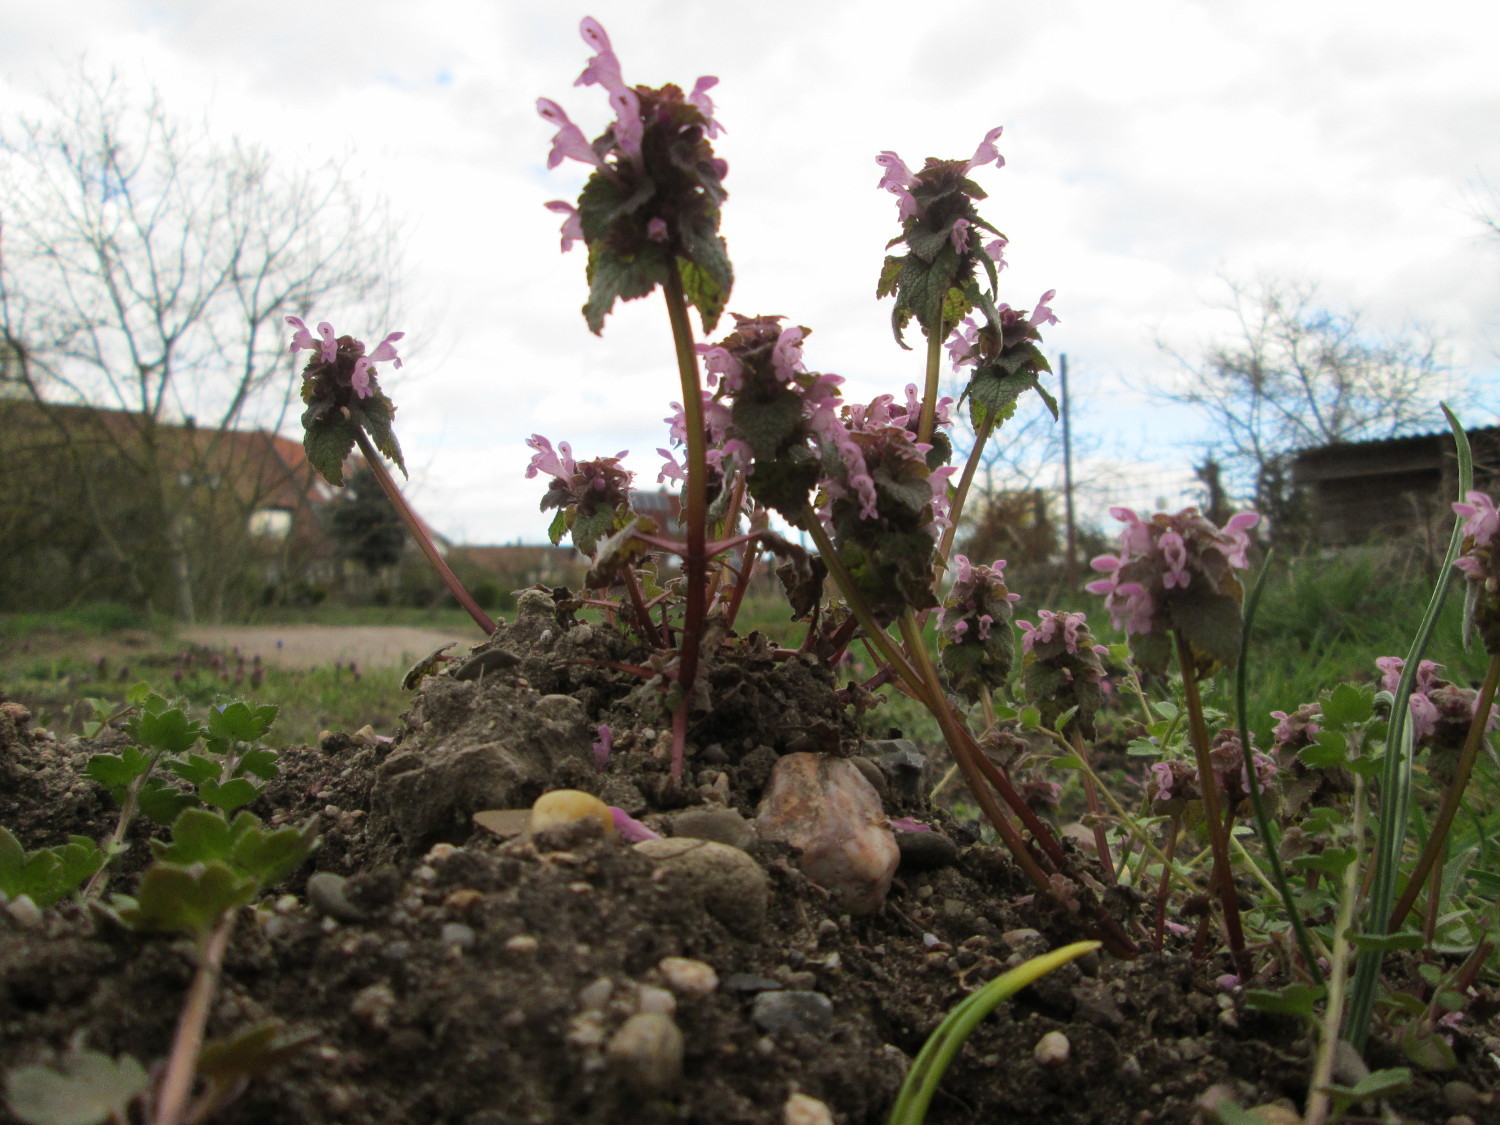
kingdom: Plantae
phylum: Tracheophyta
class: Magnoliopsida
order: Lamiales
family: Lamiaceae
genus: Lamium
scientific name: Lamium purpureum
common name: Red dead-nettle
